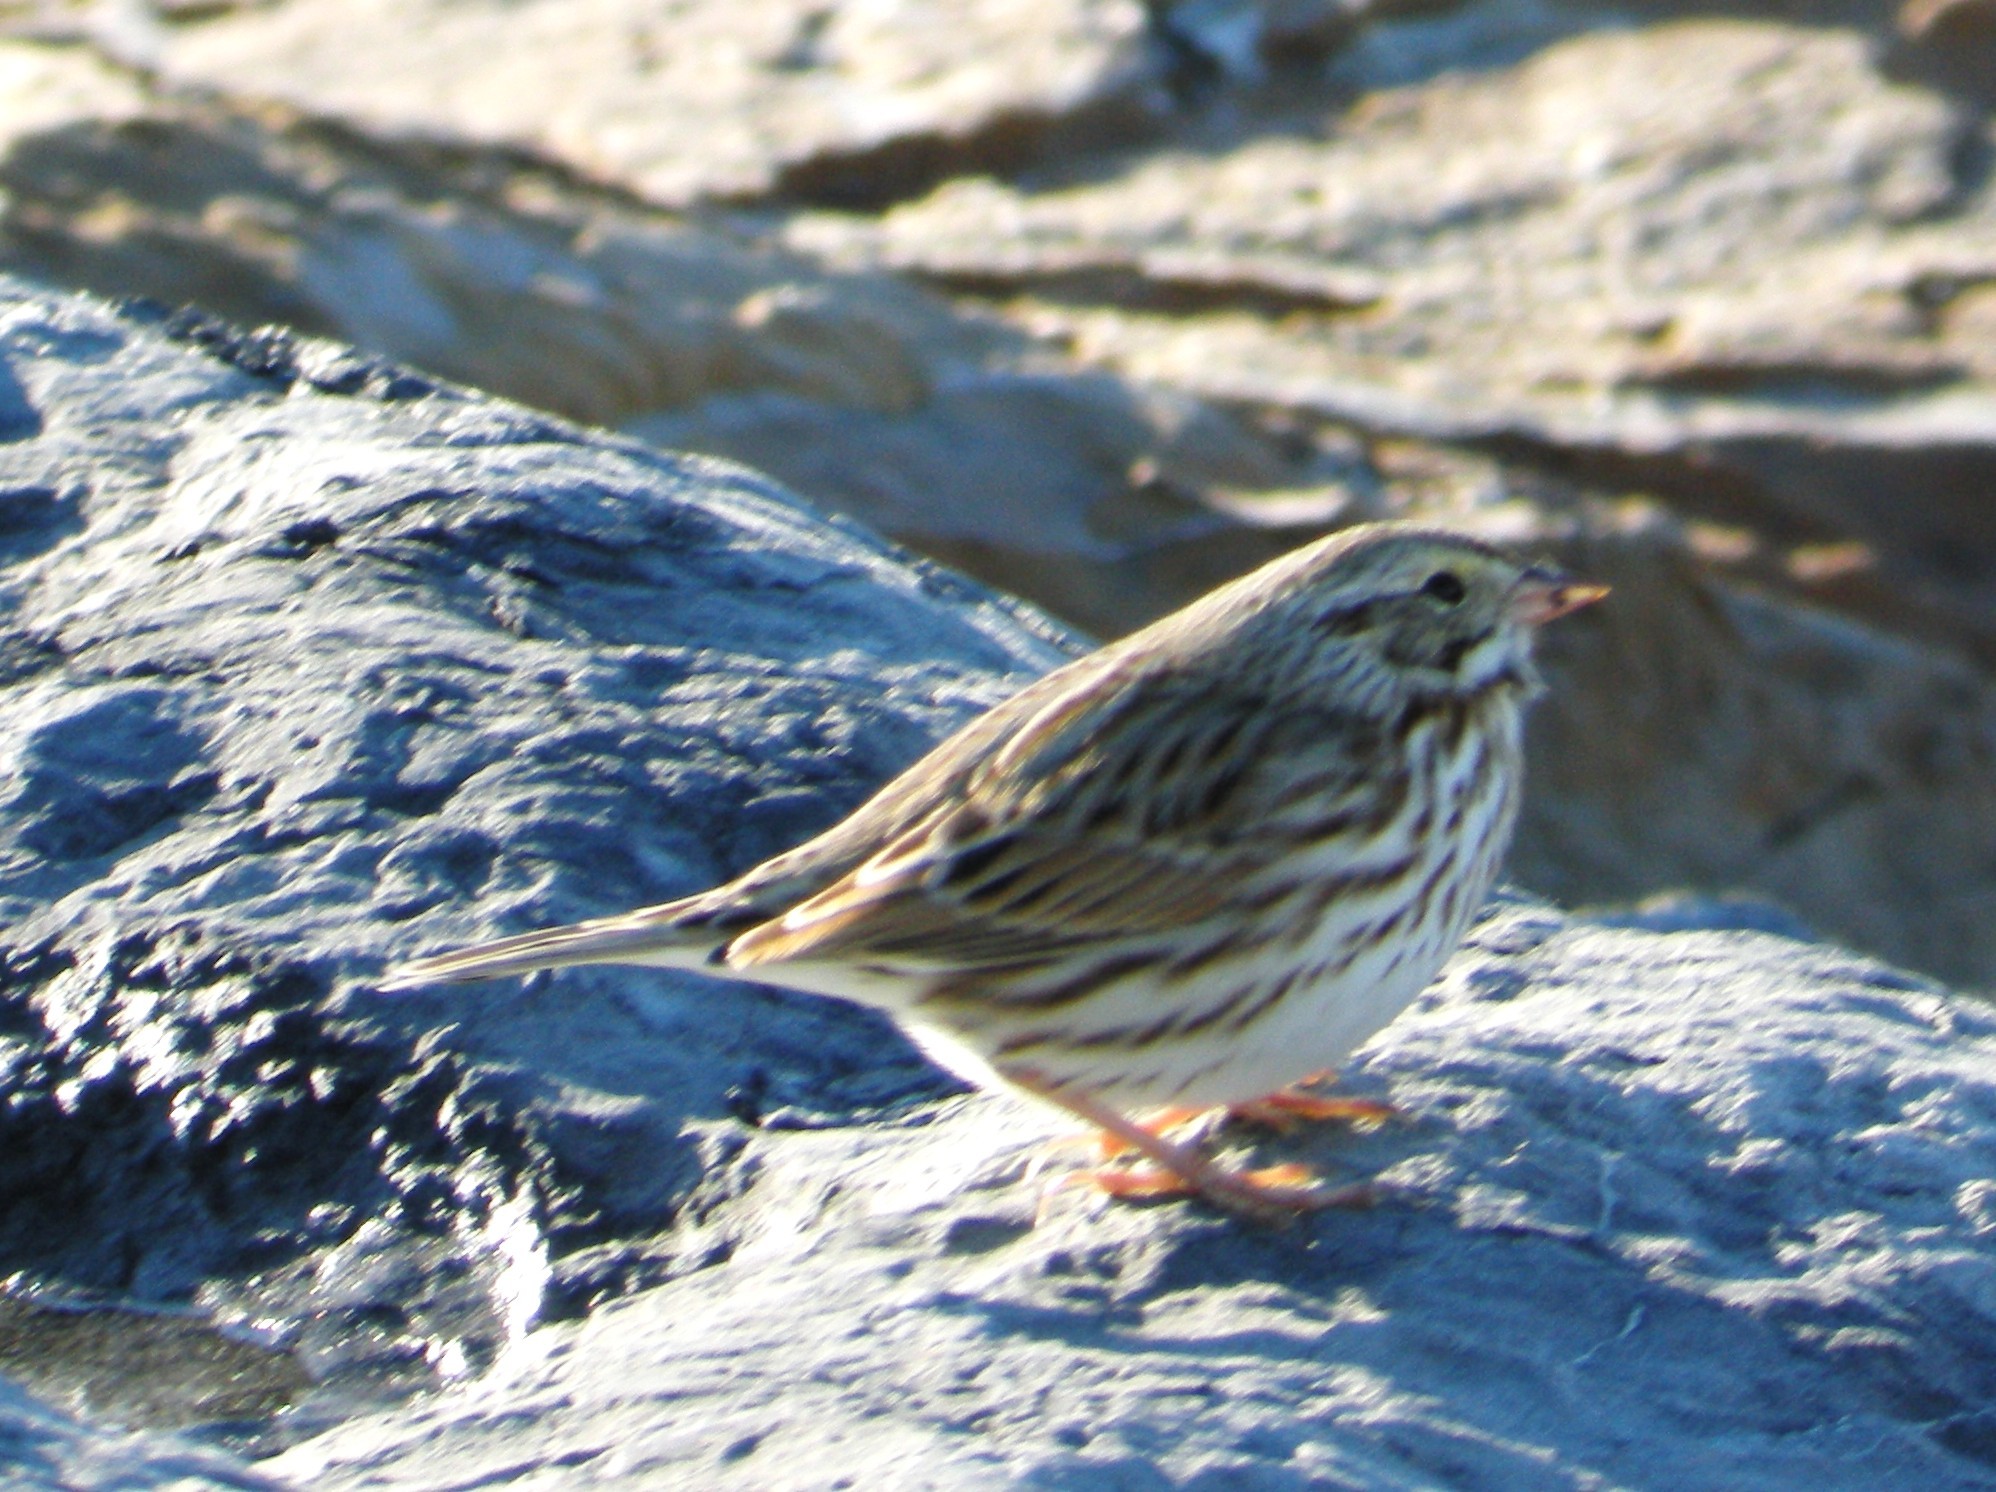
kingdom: Animalia
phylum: Chordata
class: Aves
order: Passeriformes
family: Passerellidae
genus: Passerculus
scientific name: Passerculus sandwichensis
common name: Savannah sparrow
